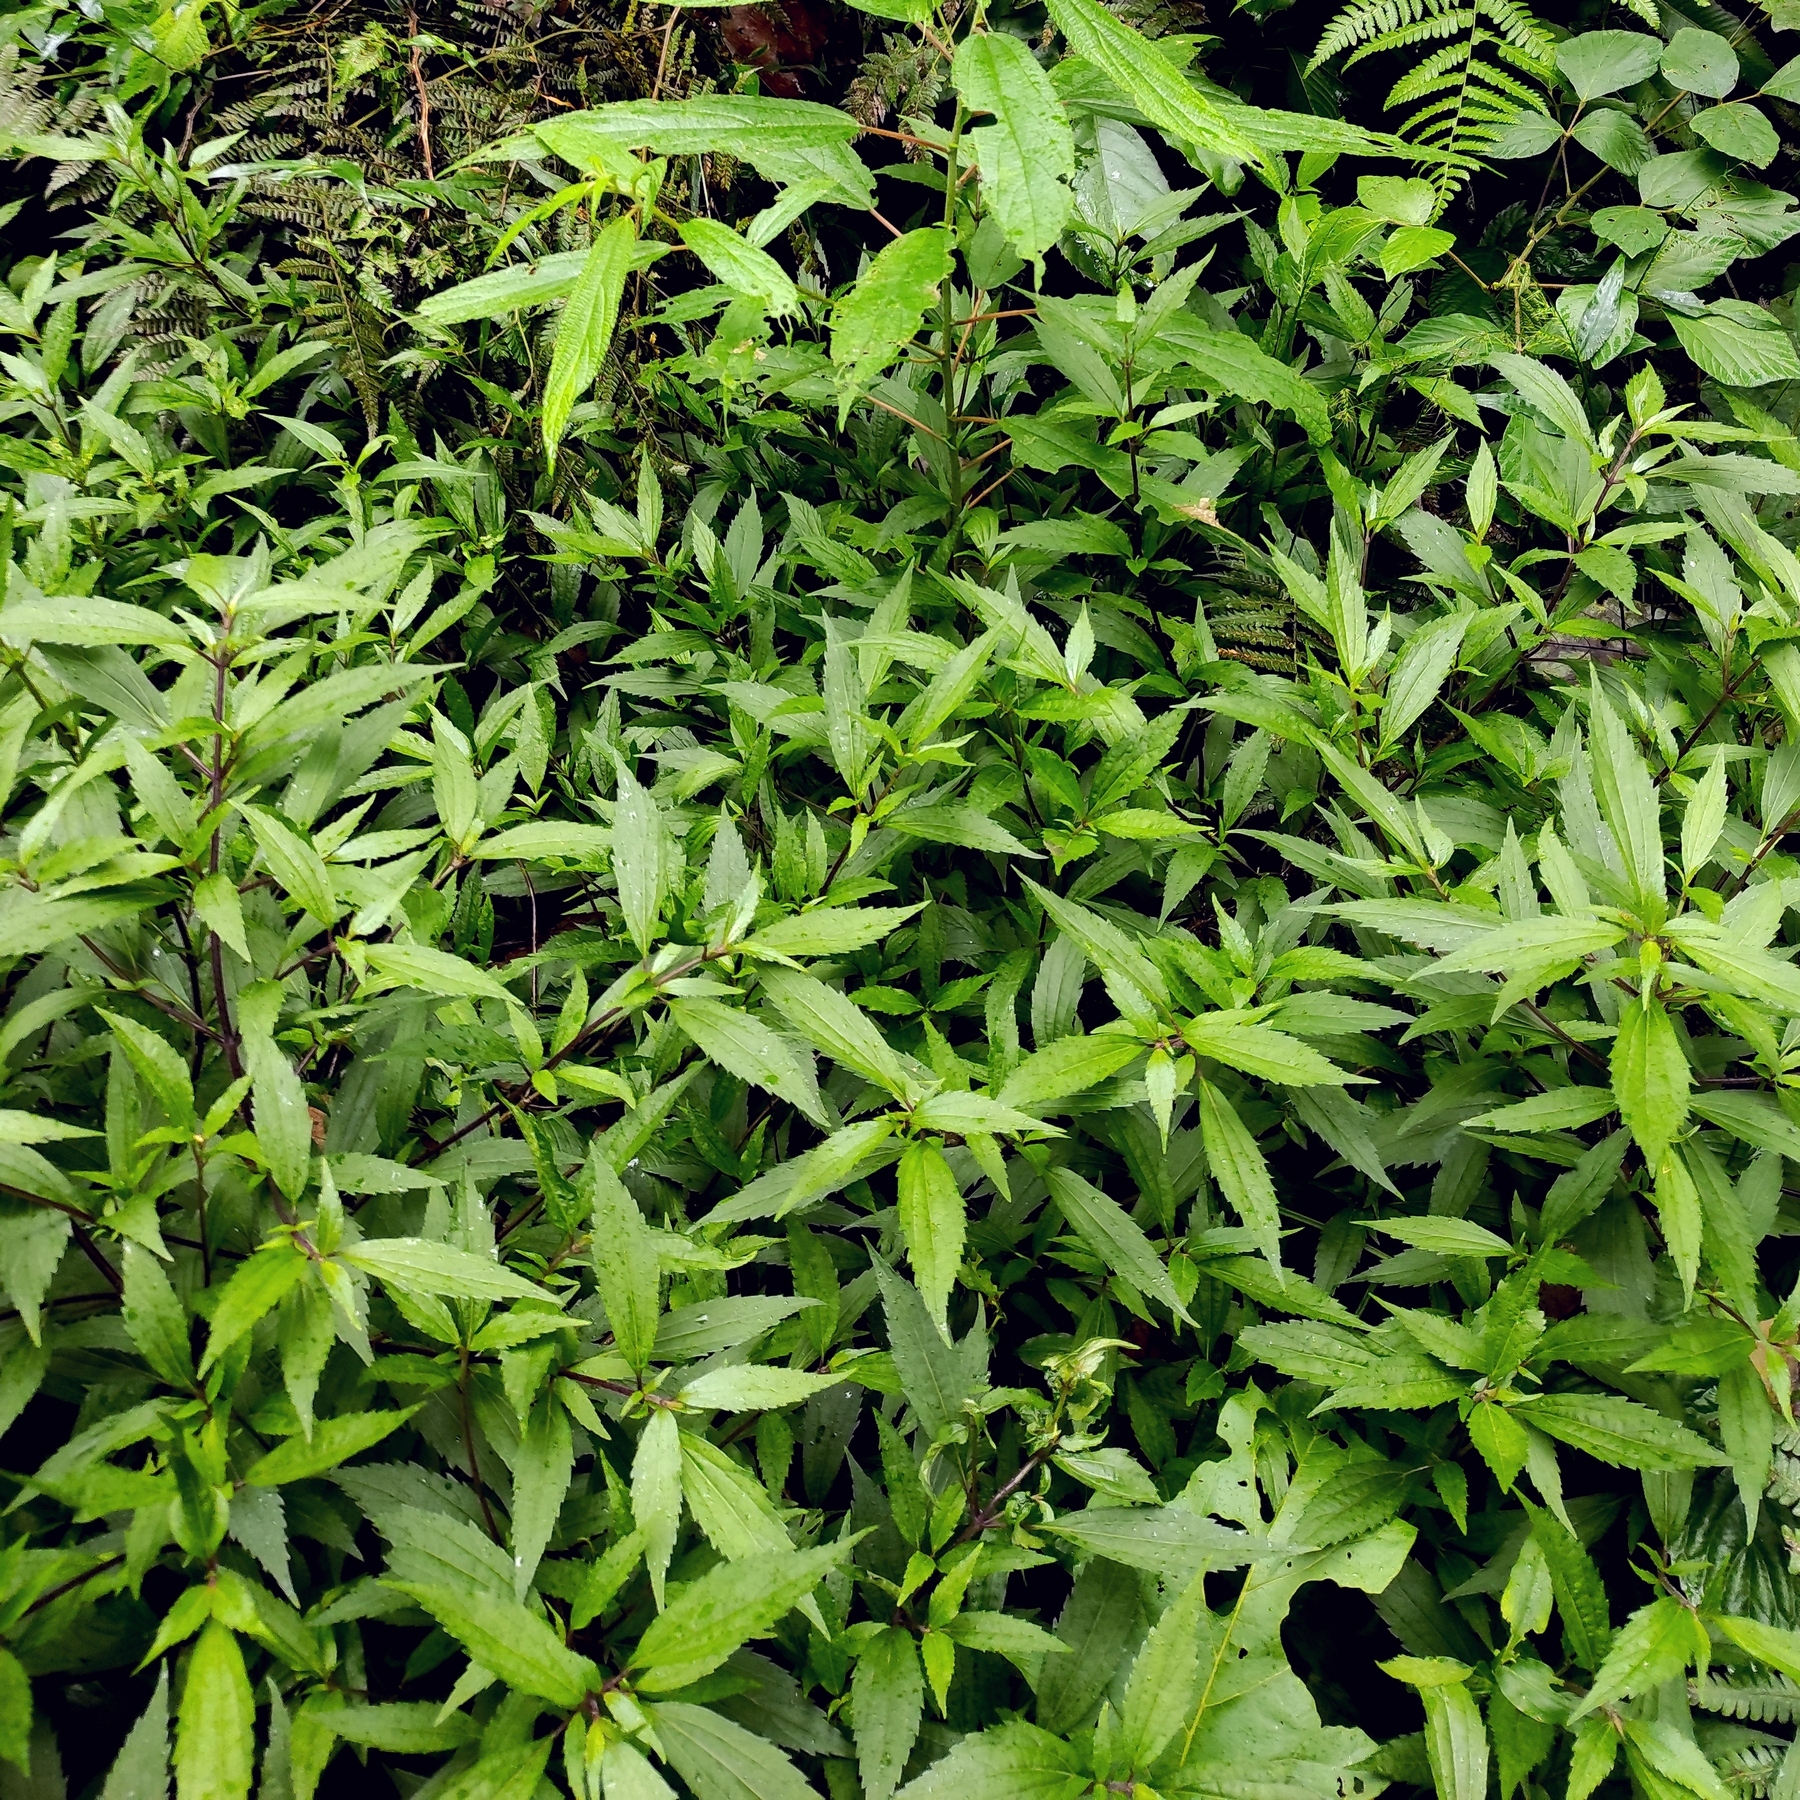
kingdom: Plantae
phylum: Tracheophyta
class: Magnoliopsida
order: Asterales
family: Asteraceae
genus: Ageratina
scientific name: Ageratina riparia
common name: Creeping croftonweed
